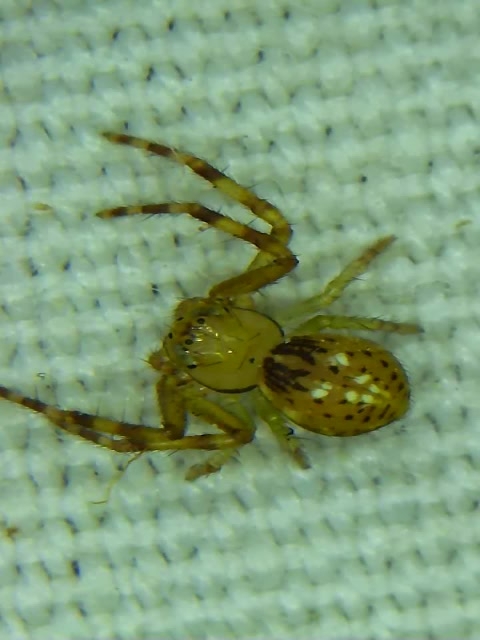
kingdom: Animalia
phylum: Arthropoda
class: Arachnida
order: Araneae
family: Thomisidae
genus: Diaea
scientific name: Diaea ambara
